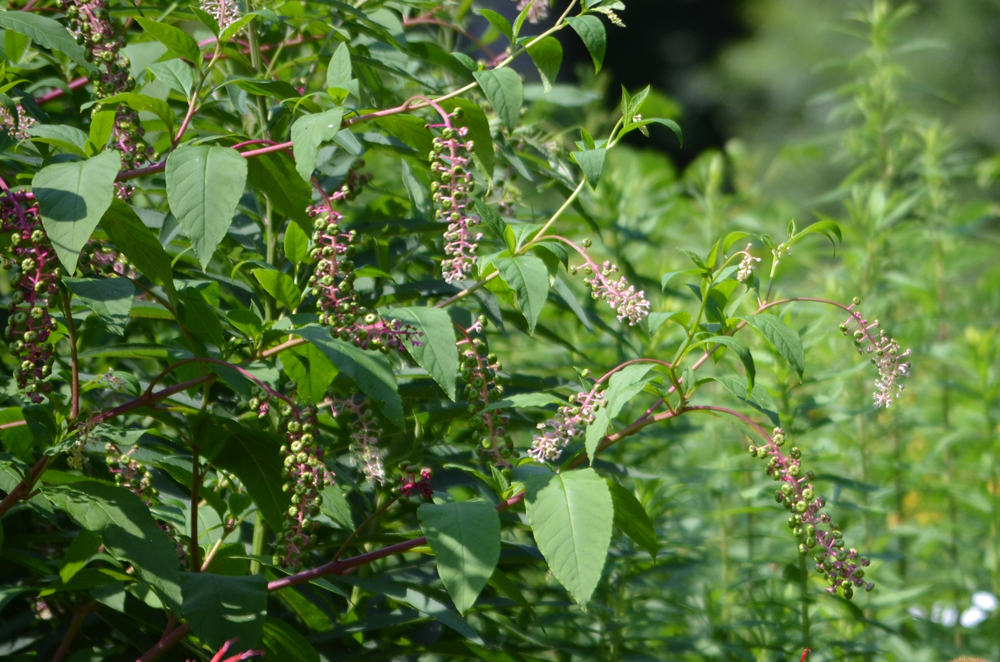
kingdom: Plantae
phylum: Tracheophyta
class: Magnoliopsida
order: Caryophyllales
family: Phytolaccaceae
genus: Phytolacca
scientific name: Phytolacca americana
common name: American pokeweed
